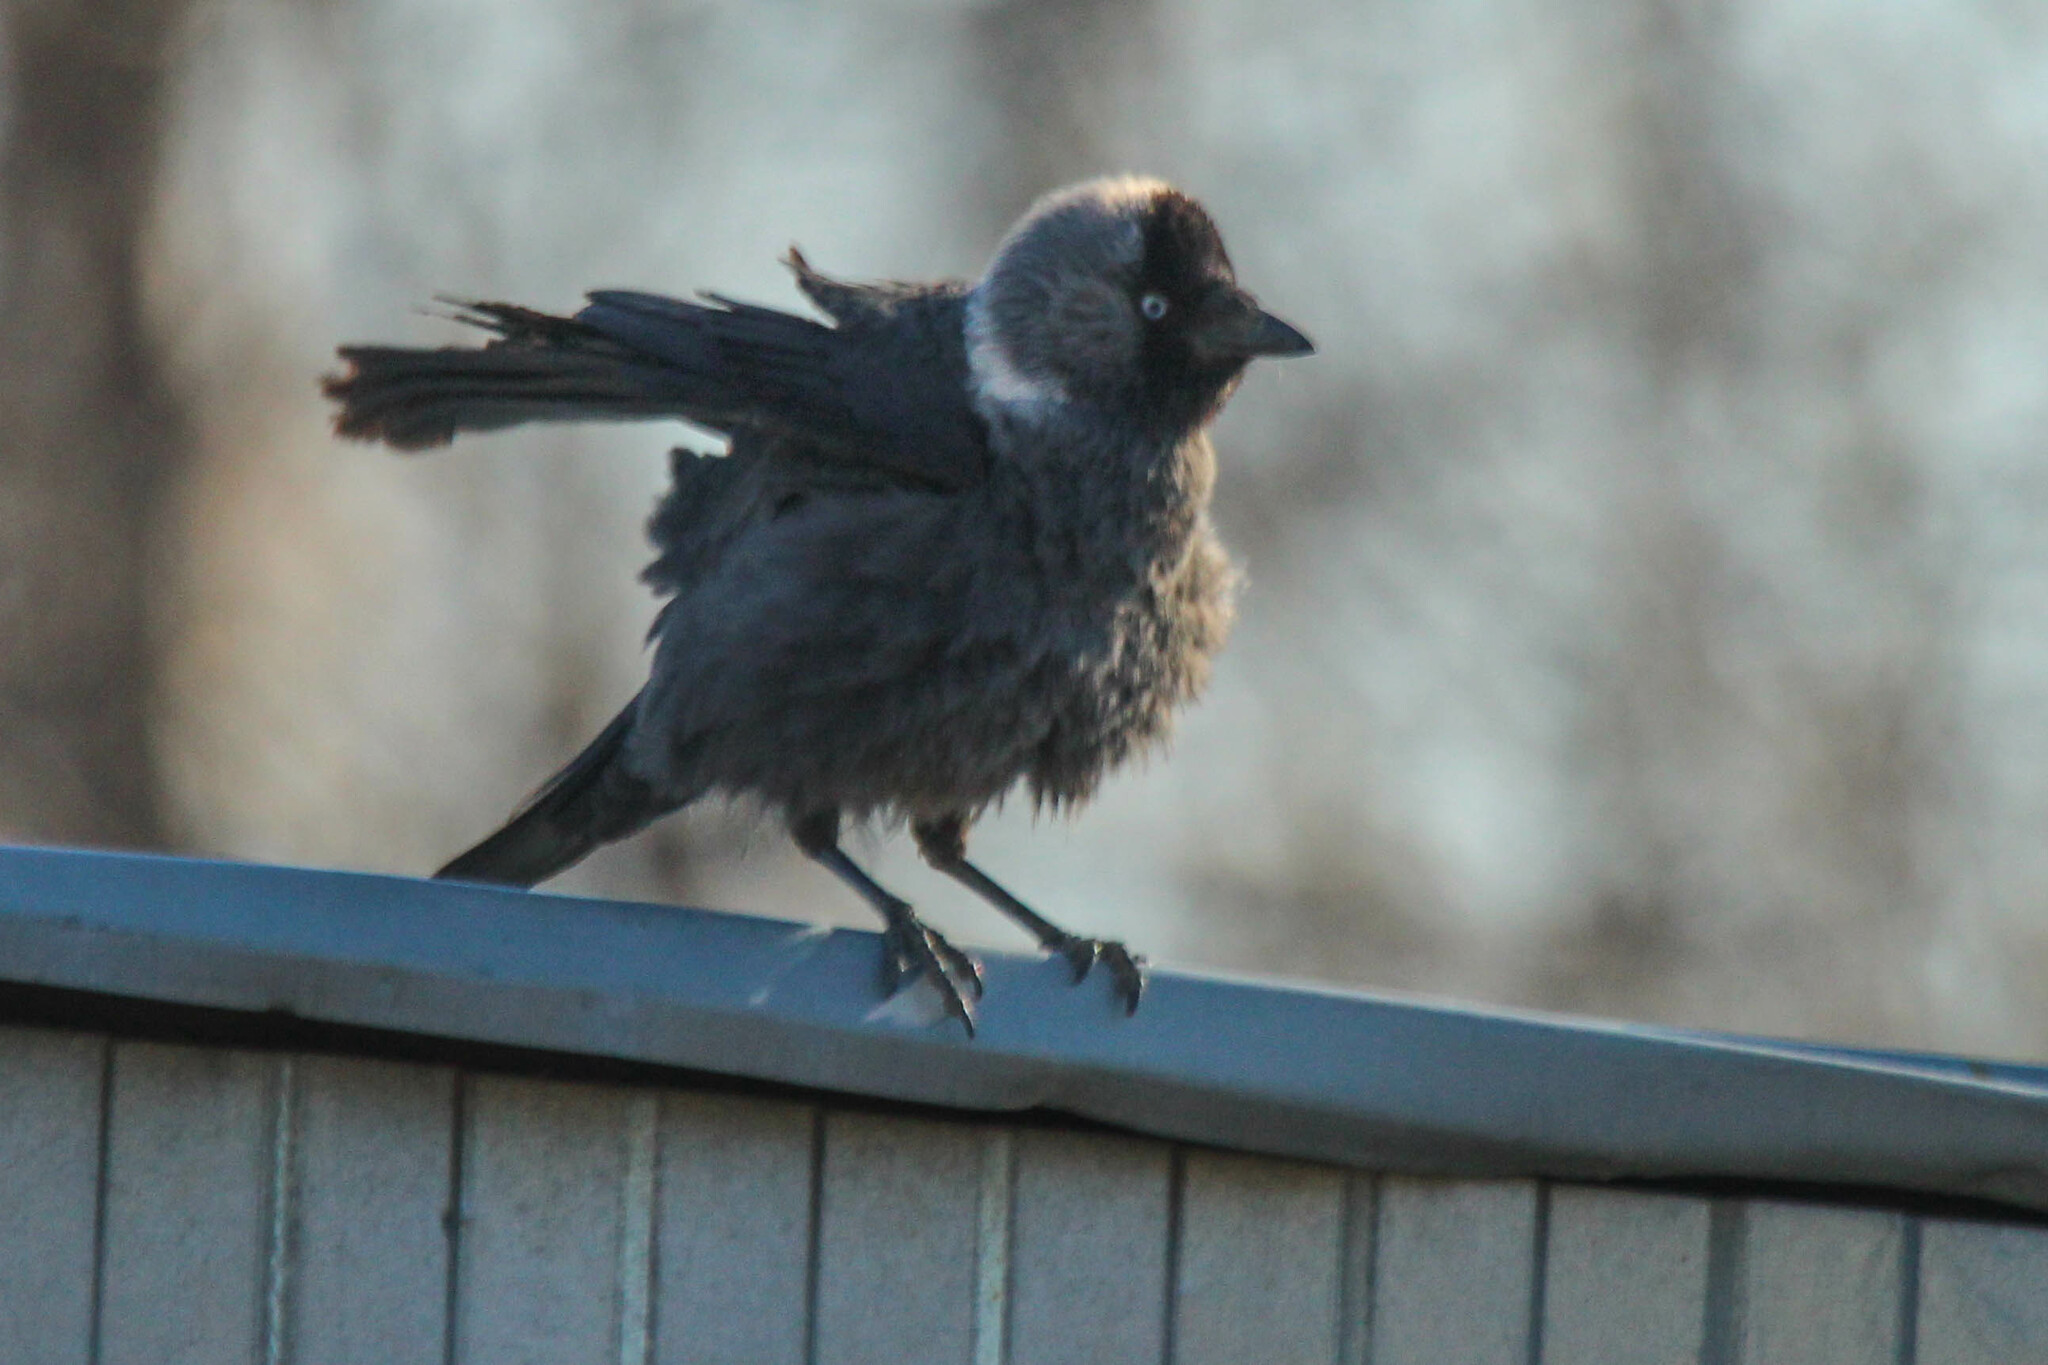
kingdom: Animalia
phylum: Chordata
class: Aves
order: Passeriformes
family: Corvidae
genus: Coloeus
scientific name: Coloeus monedula
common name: Western jackdaw
